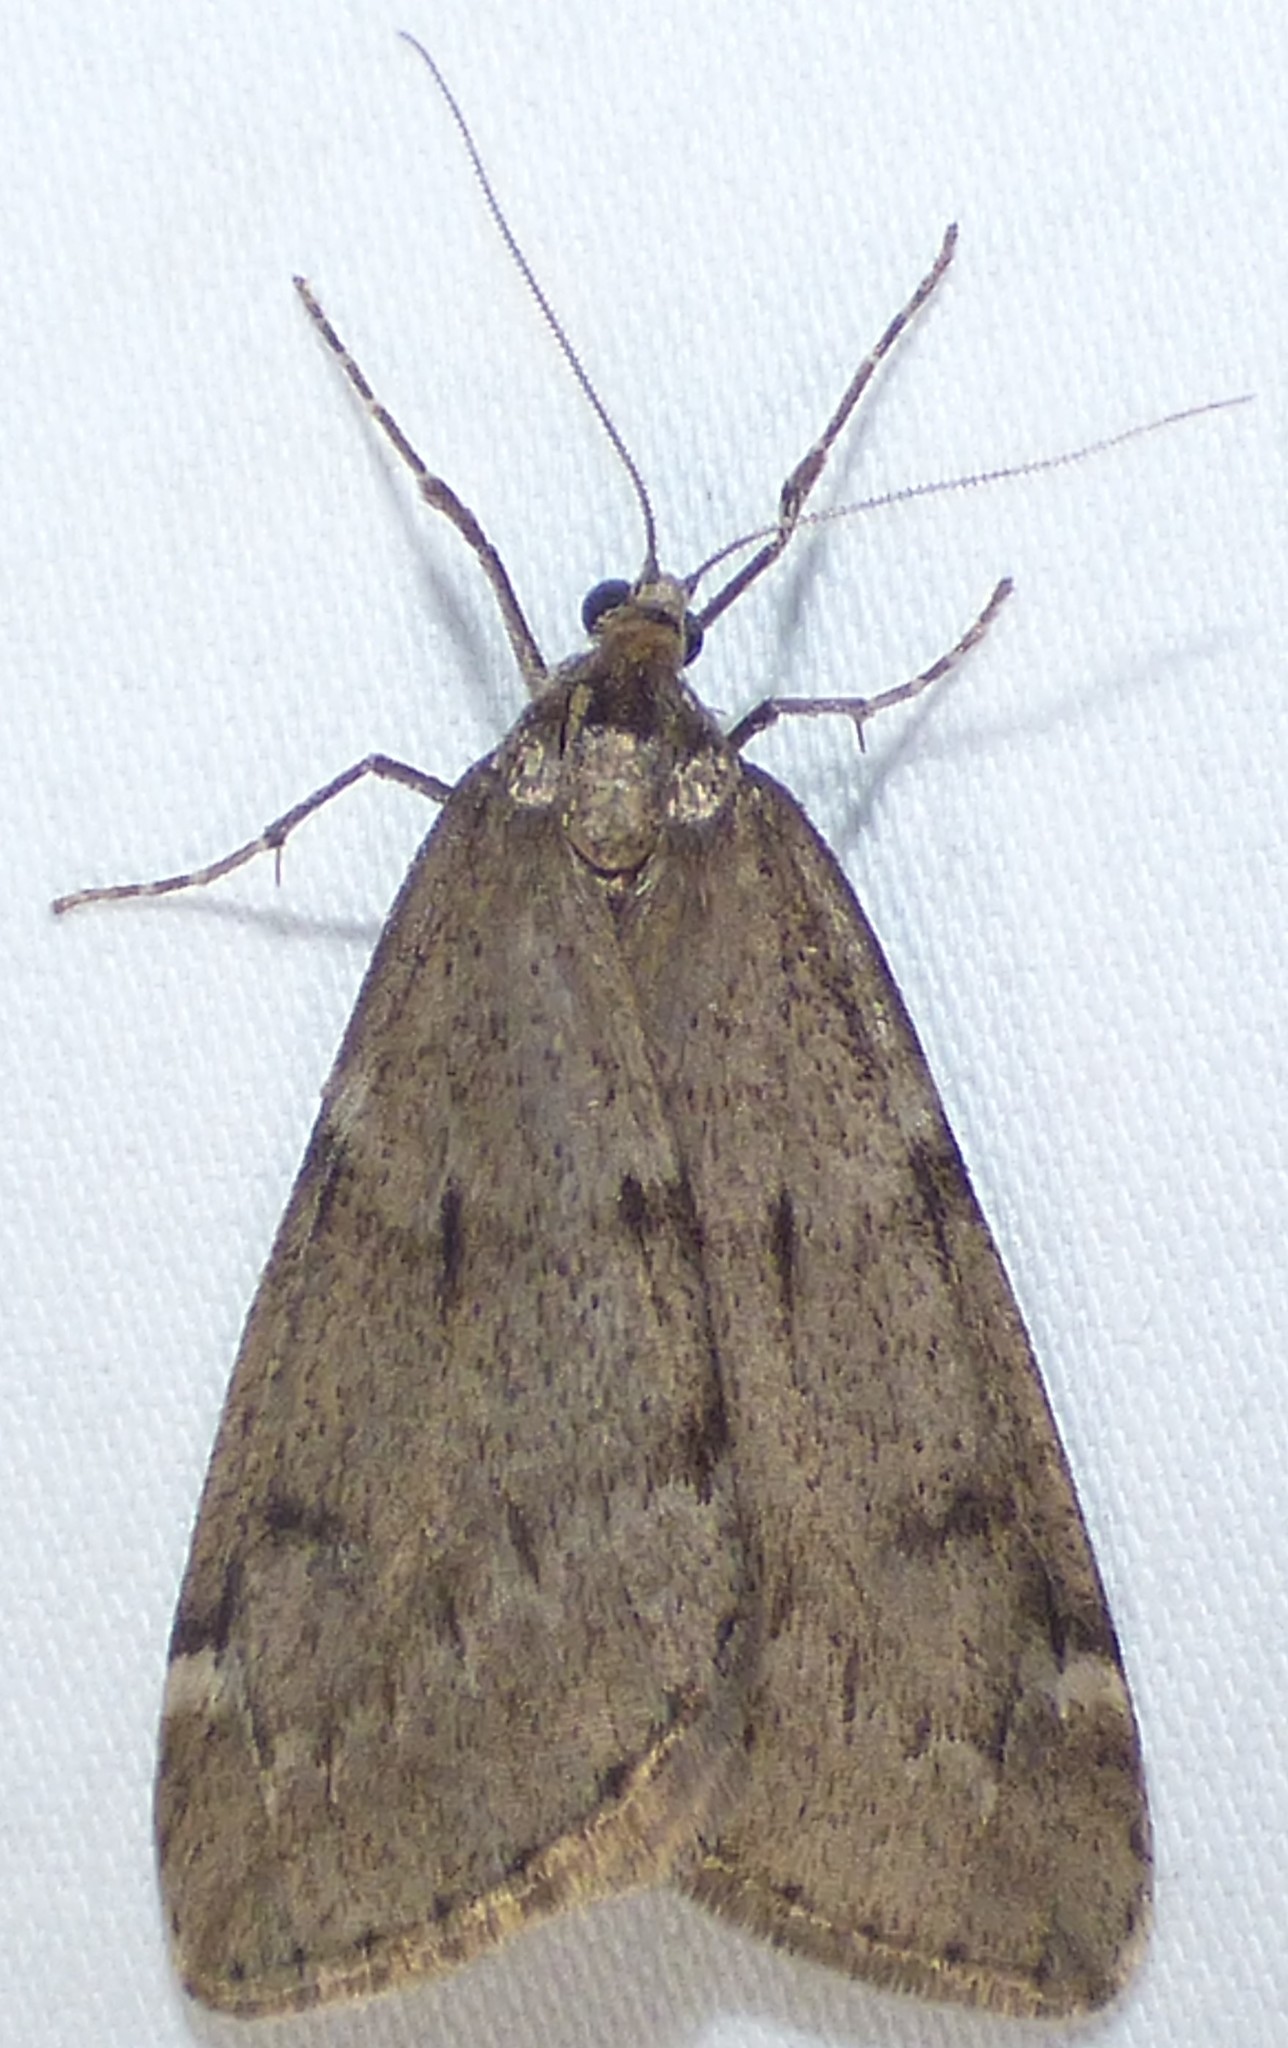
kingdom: Animalia
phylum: Arthropoda
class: Insecta
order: Lepidoptera
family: Geometridae
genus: Alsophila
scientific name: Alsophila pometaria
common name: Fall cankerworm
